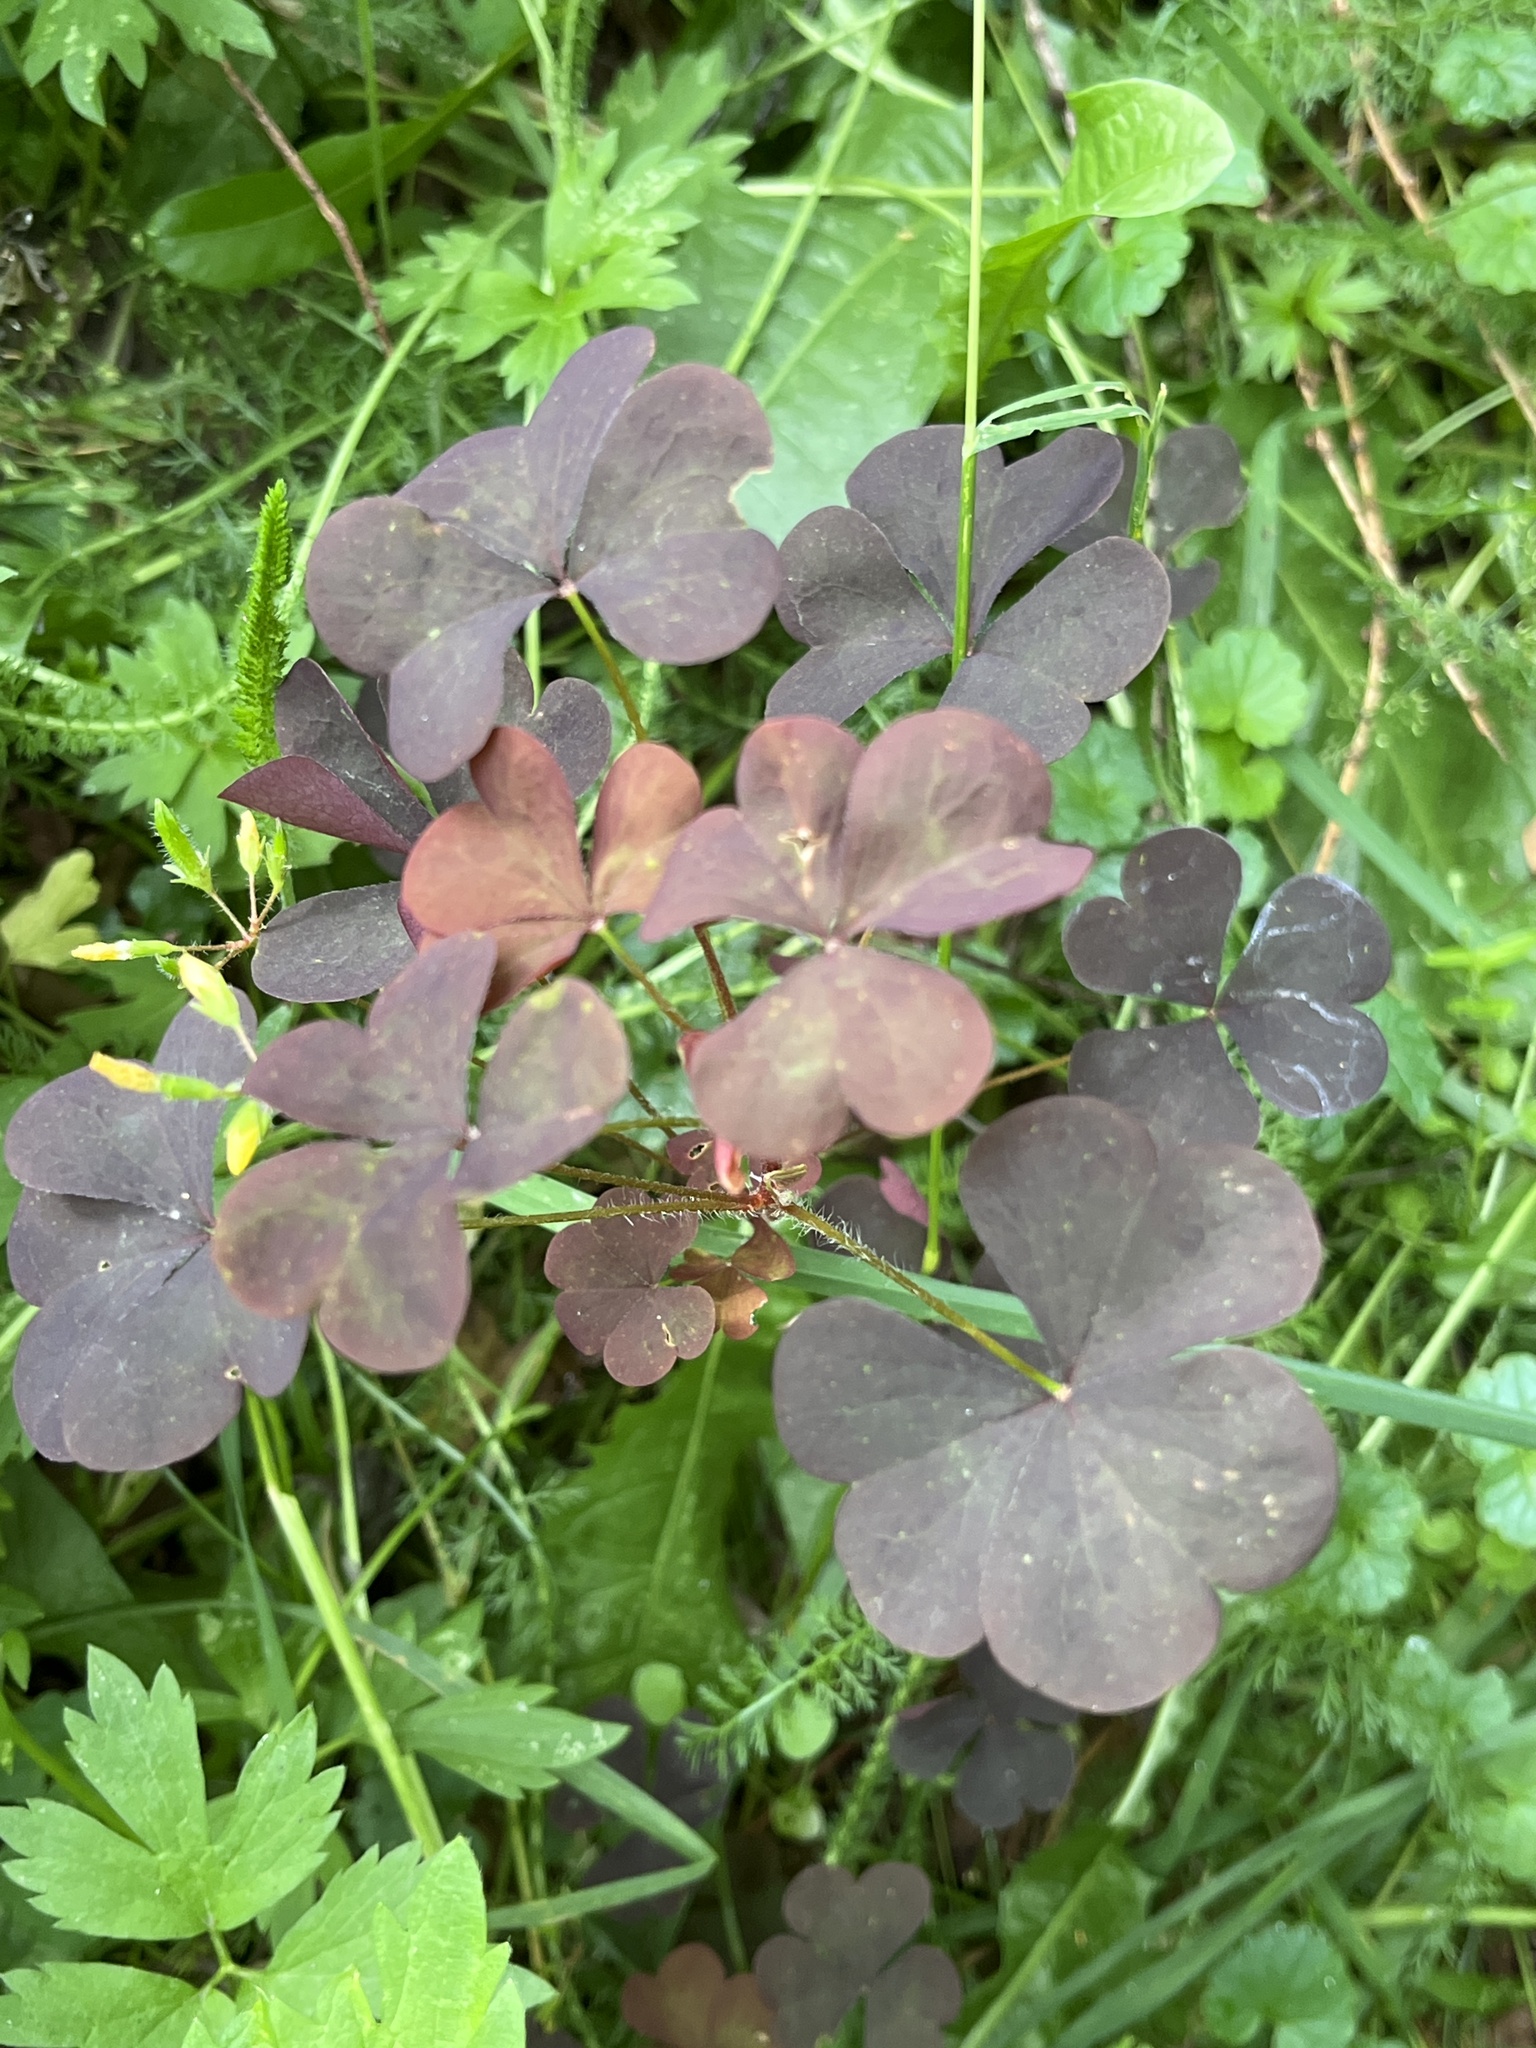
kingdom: Plantae
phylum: Tracheophyta
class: Magnoliopsida
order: Oxalidales
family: Oxalidaceae
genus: Oxalis
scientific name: Oxalis stricta
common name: Upright yellow-sorrel
